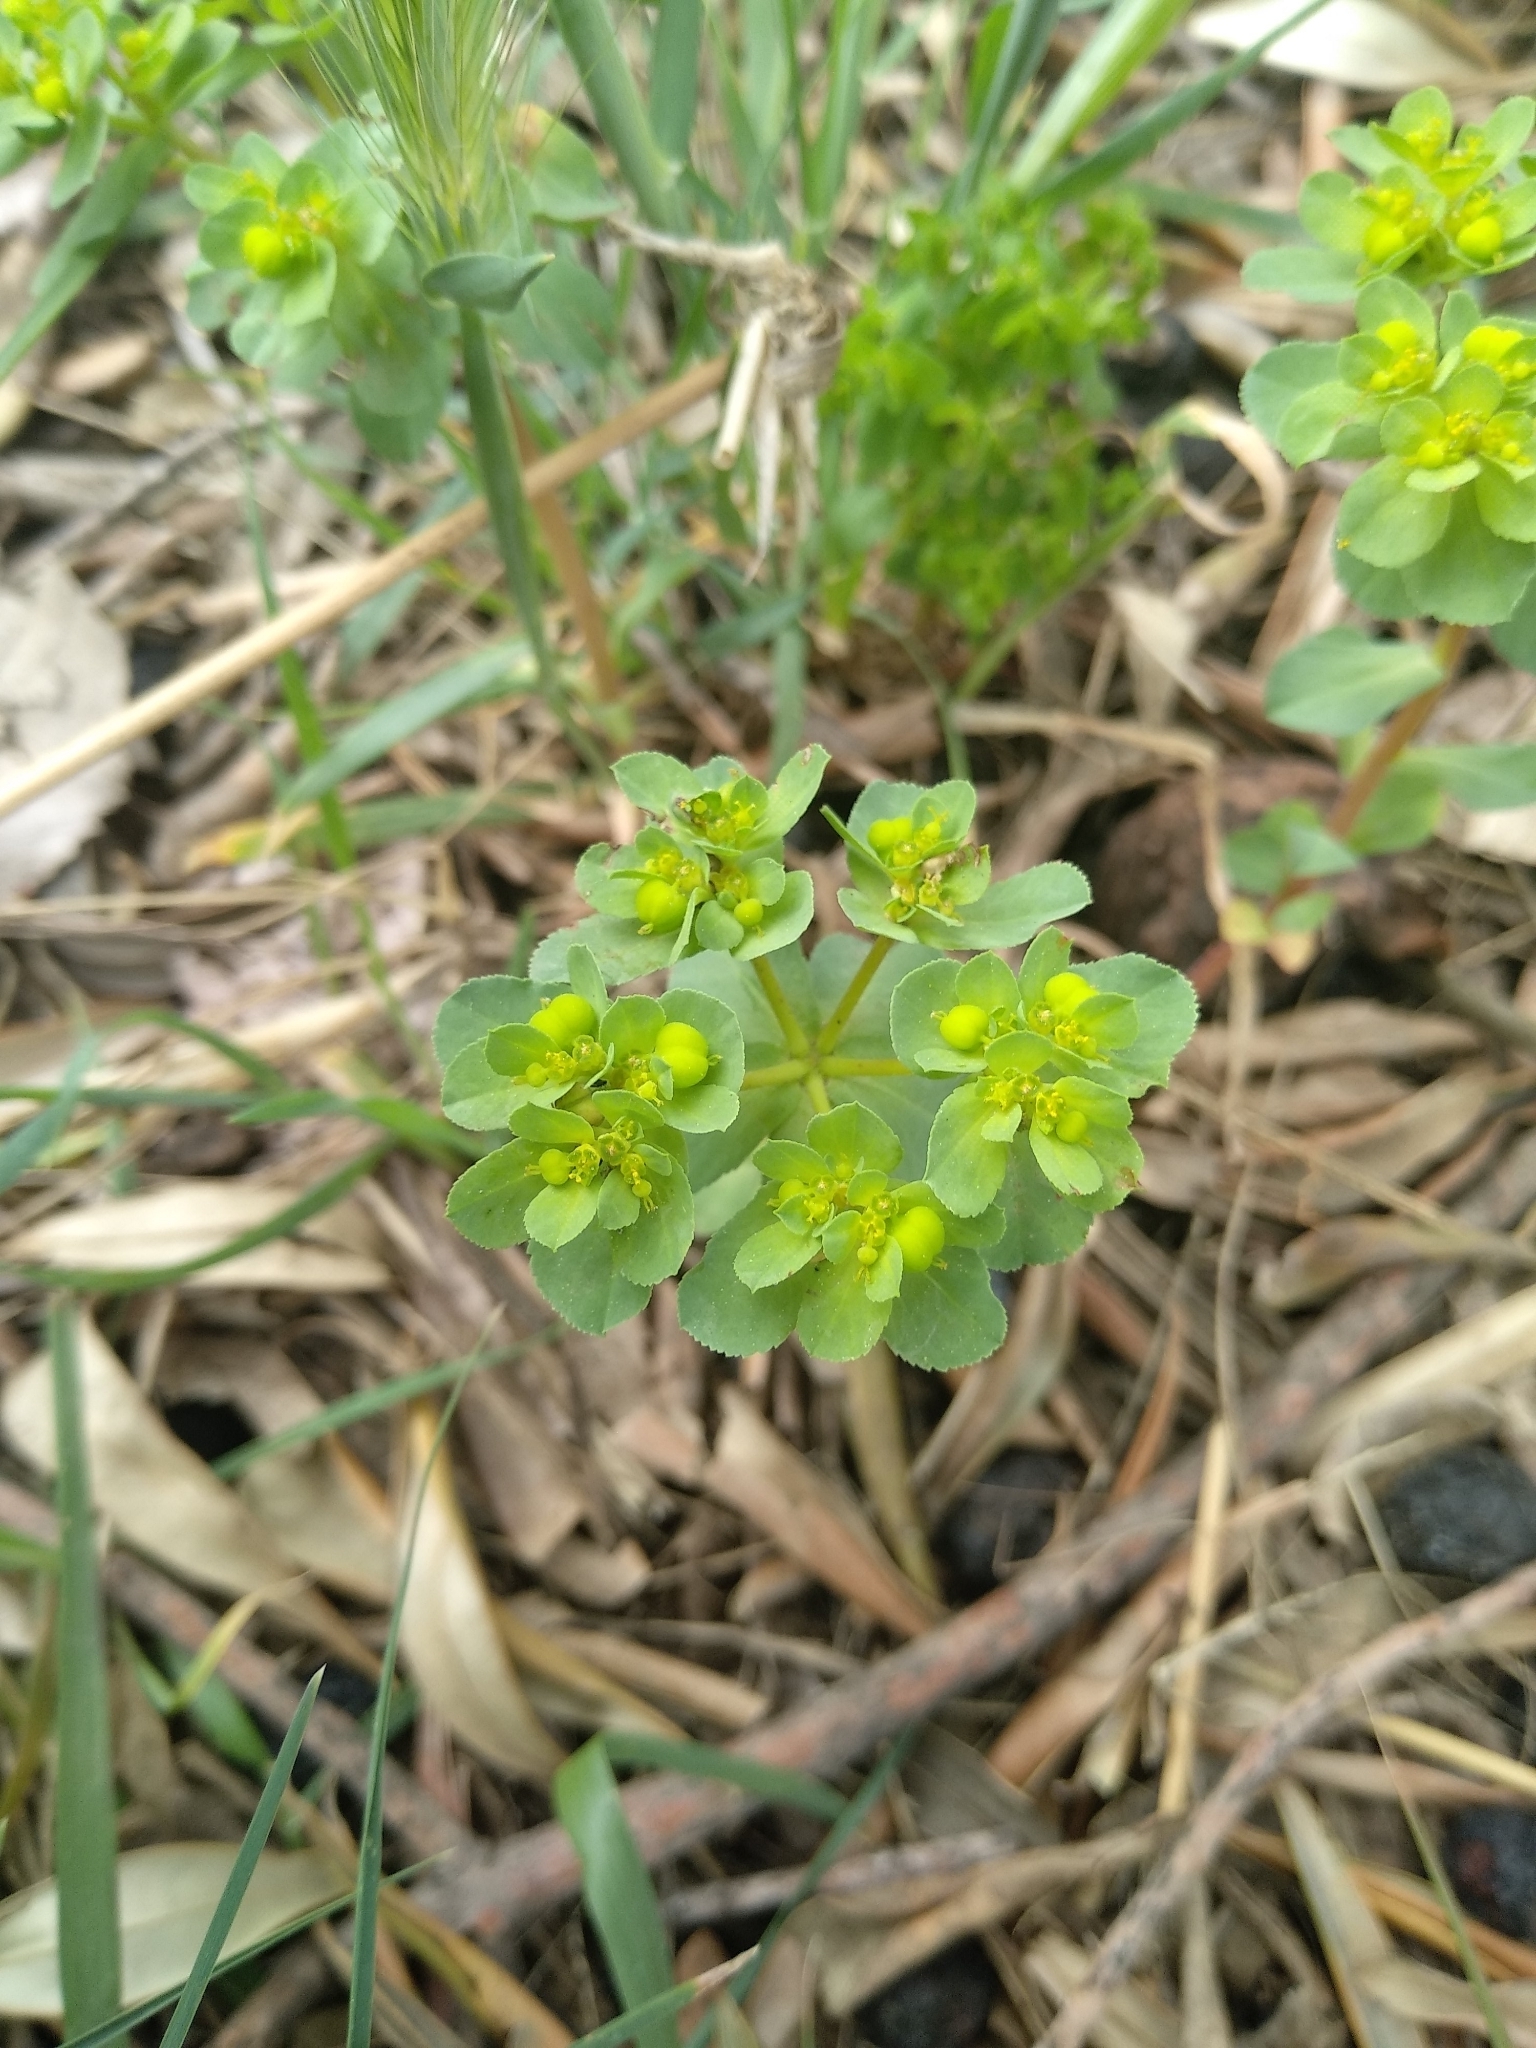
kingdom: Plantae
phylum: Tracheophyta
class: Magnoliopsida
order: Malpighiales
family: Euphorbiaceae
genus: Euphorbia
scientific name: Euphorbia helioscopia
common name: Sun spurge
